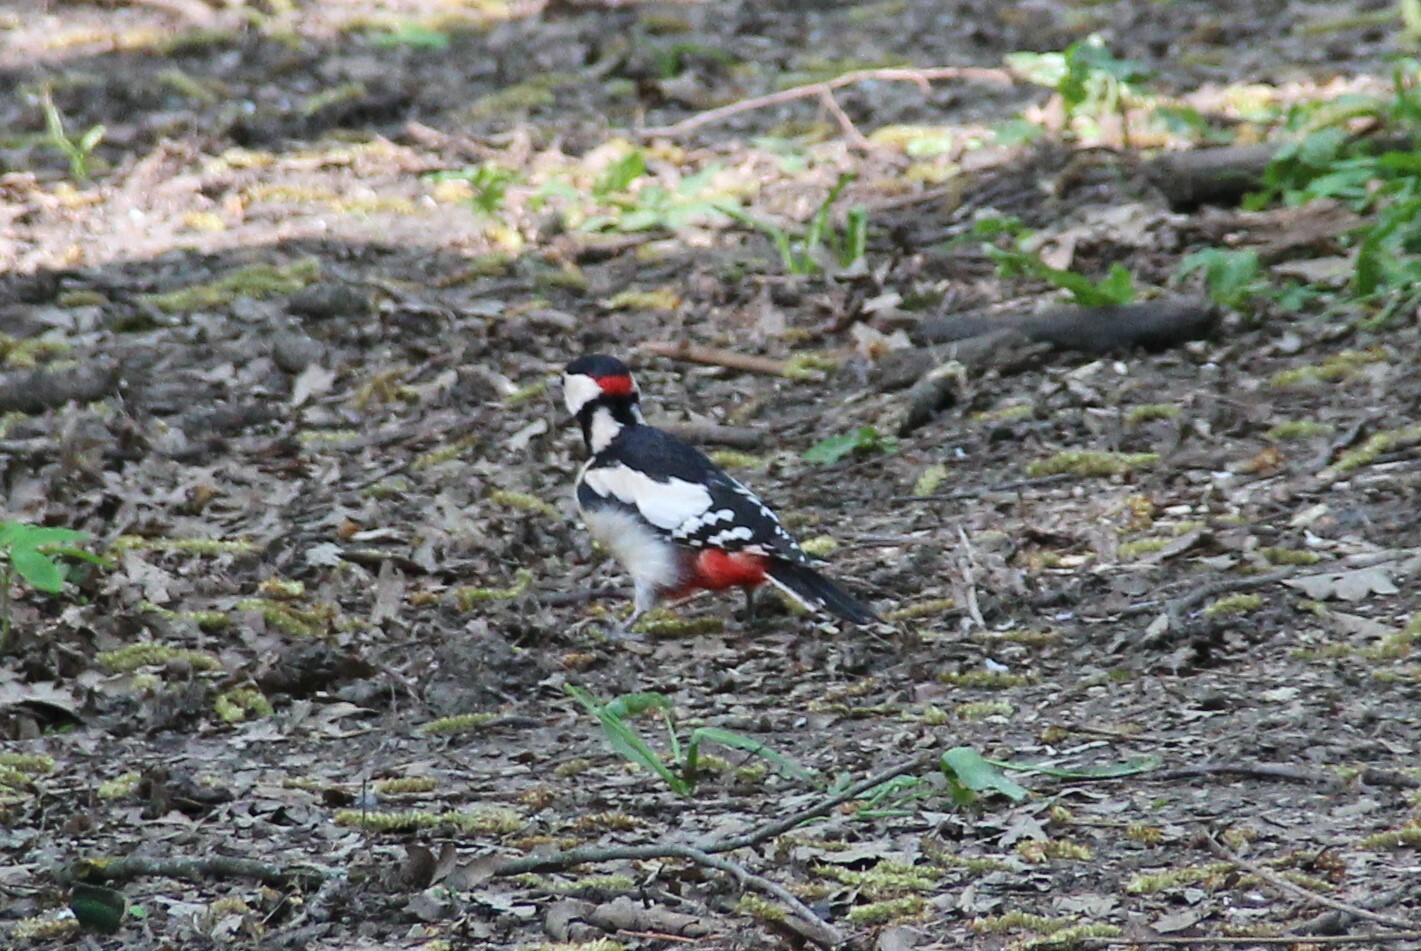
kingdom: Animalia
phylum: Chordata
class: Aves
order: Piciformes
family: Picidae
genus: Dendrocopos
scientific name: Dendrocopos major
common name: Great spotted woodpecker
